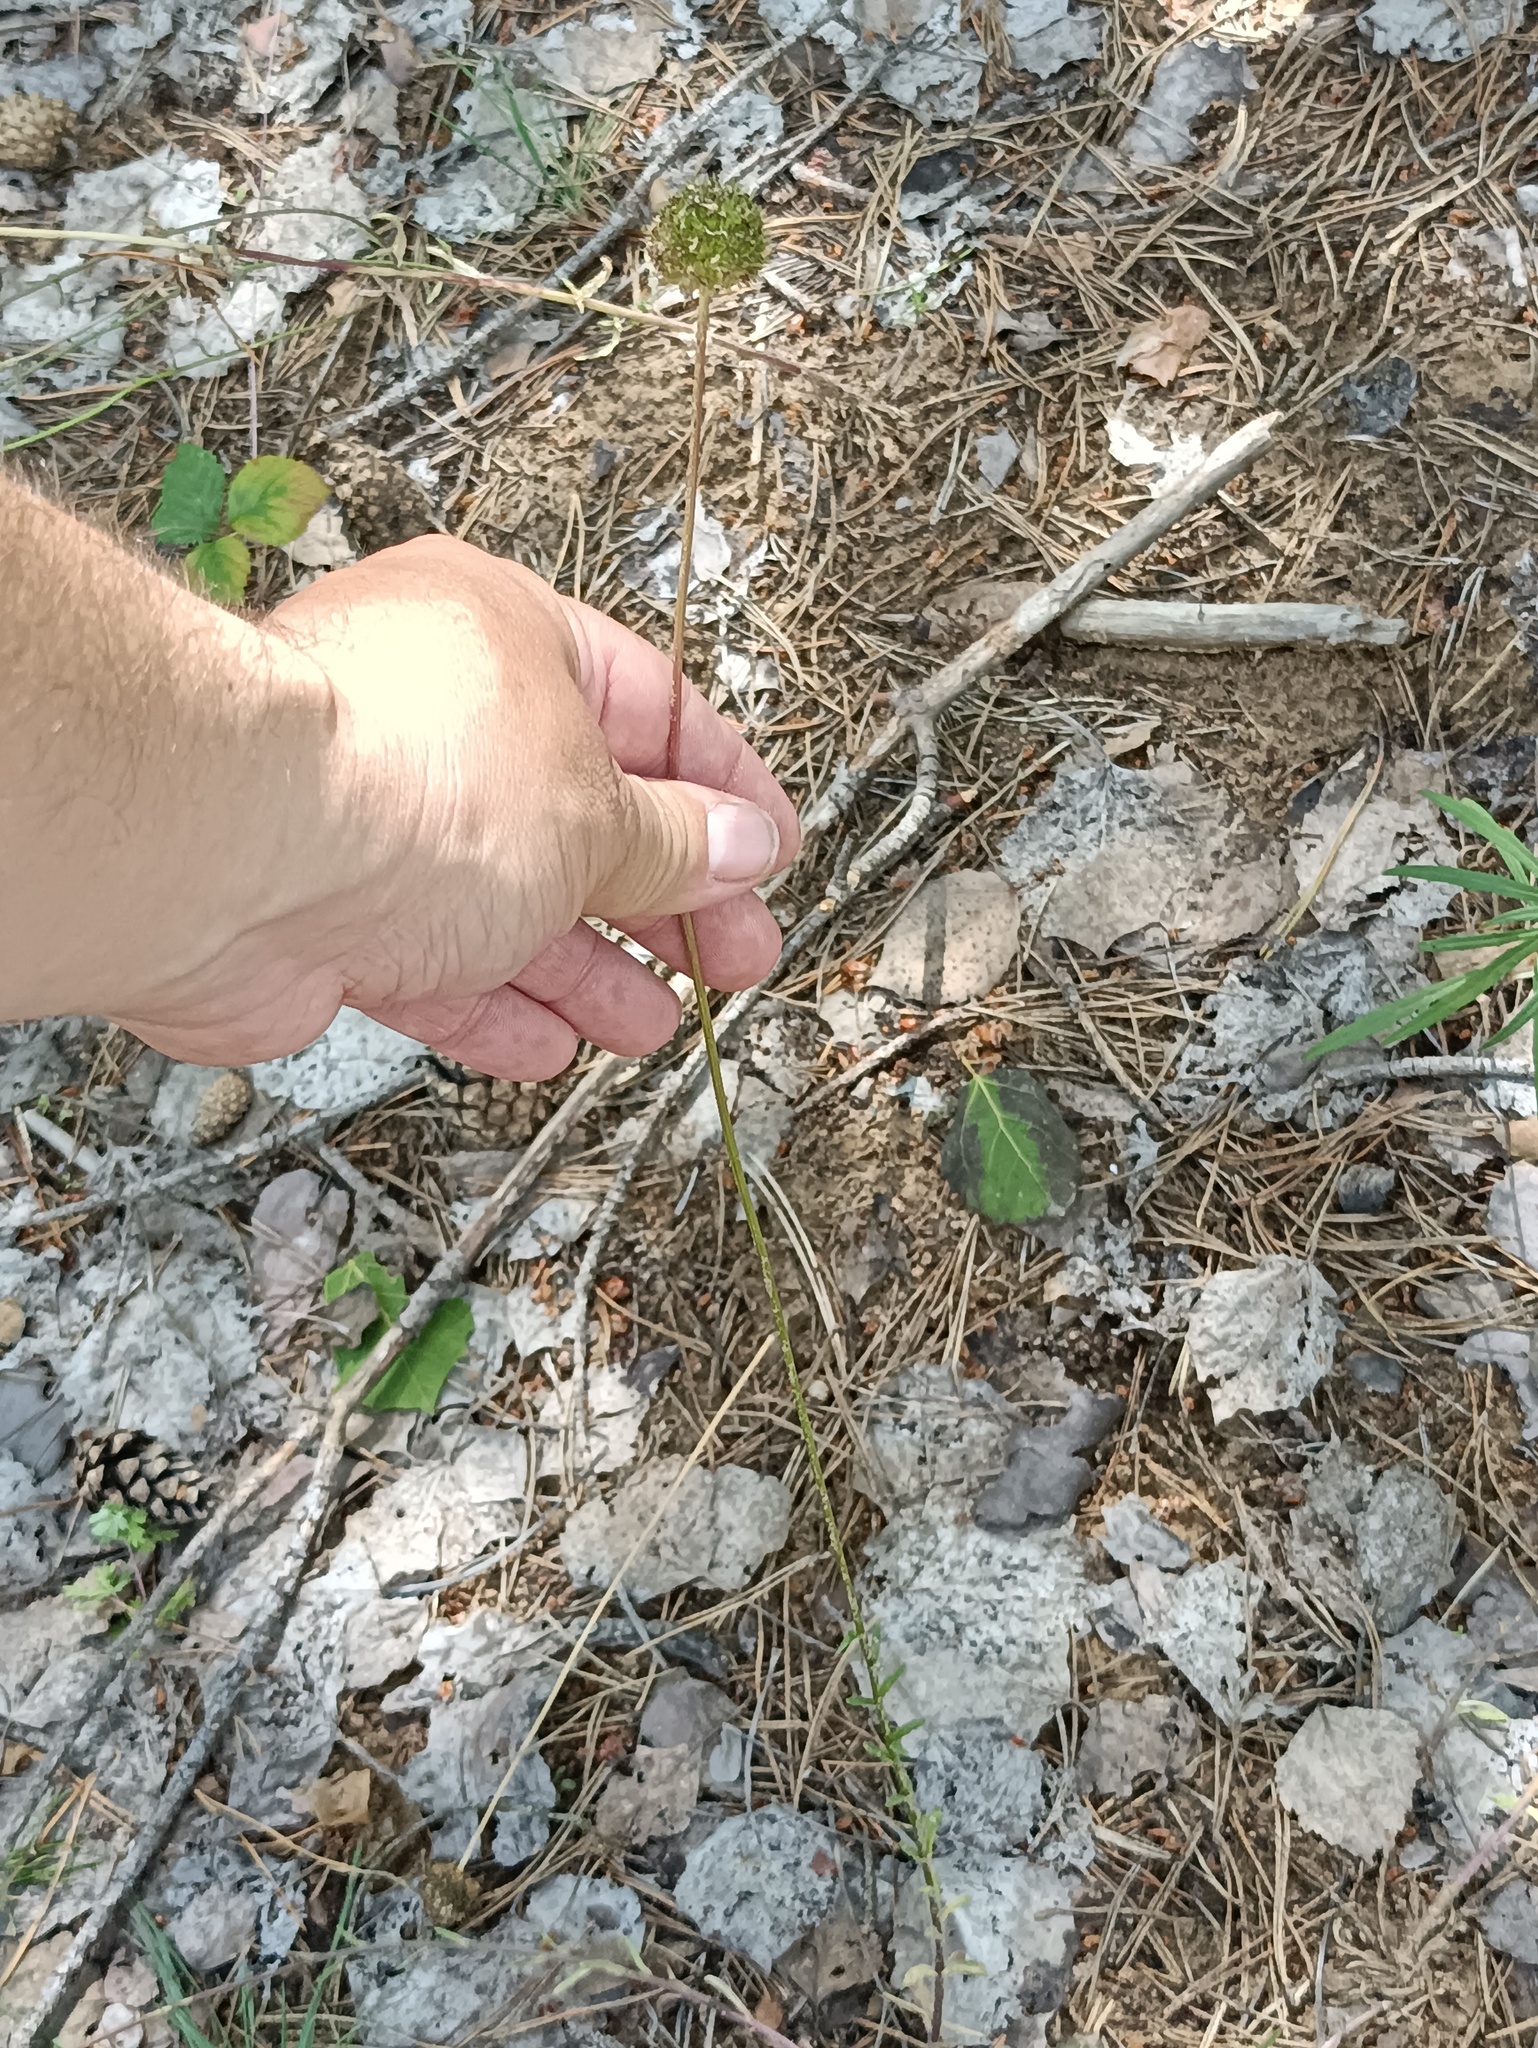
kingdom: Plantae
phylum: Tracheophyta
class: Magnoliopsida
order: Asterales
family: Campanulaceae
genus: Jasione
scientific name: Jasione montana
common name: Sheep's-bit
